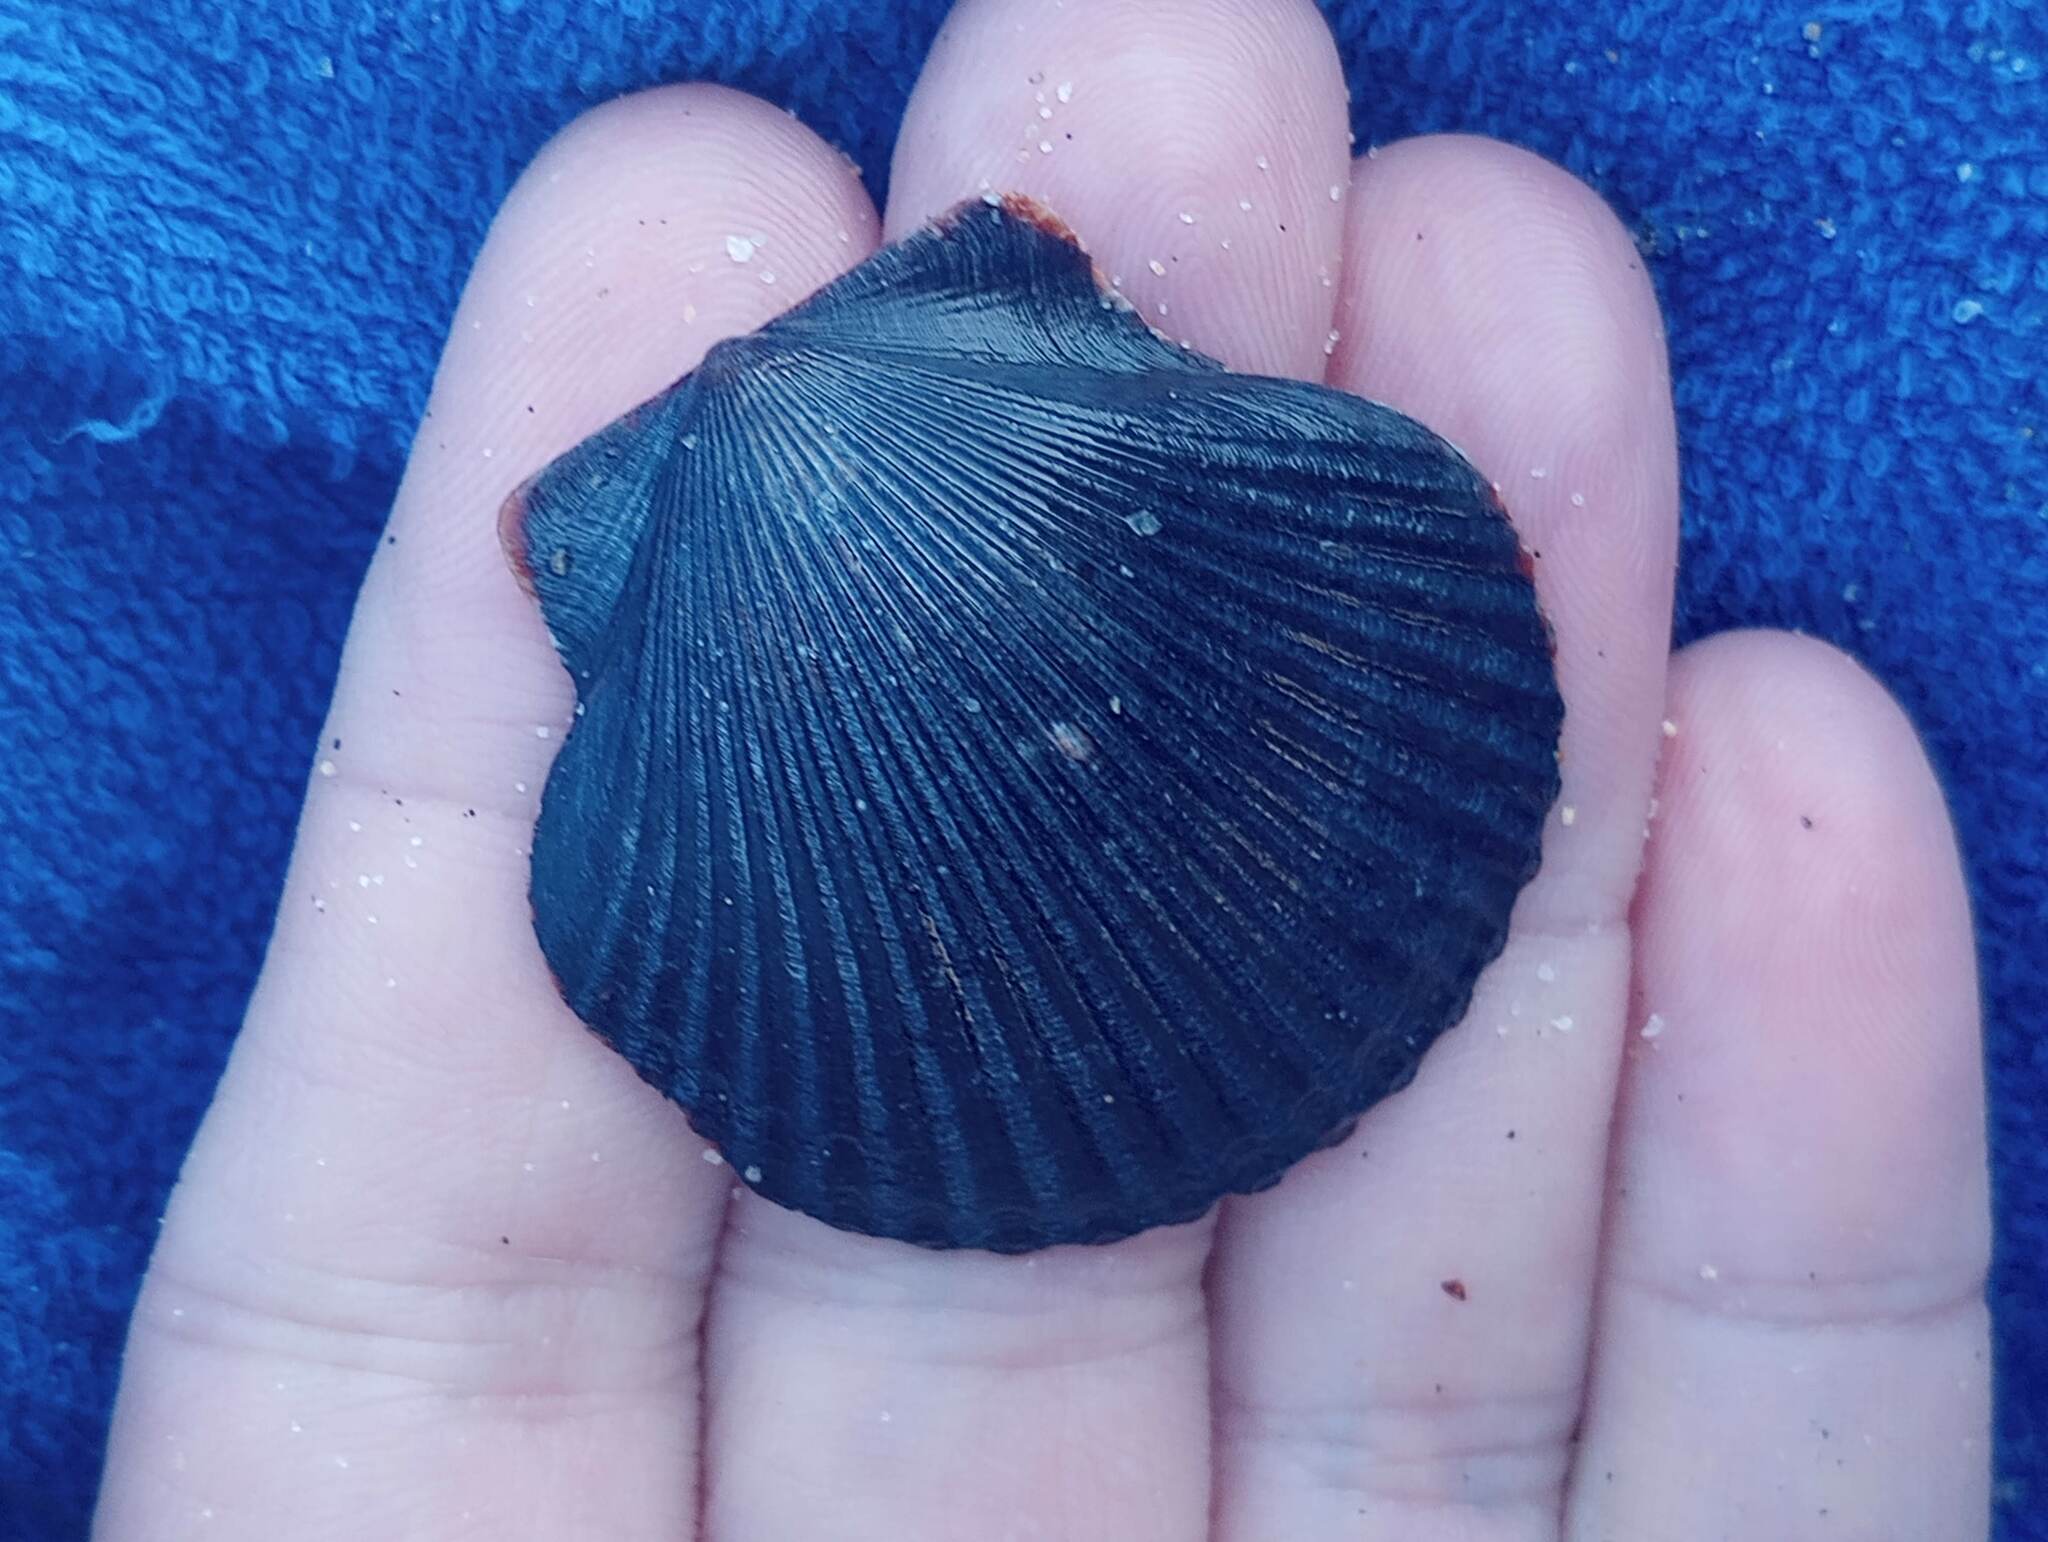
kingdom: Animalia
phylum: Mollusca
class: Bivalvia
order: Pectinida
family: Pectinidae
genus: Argopecten
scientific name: Argopecten ventricosus
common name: Catarina scallop
